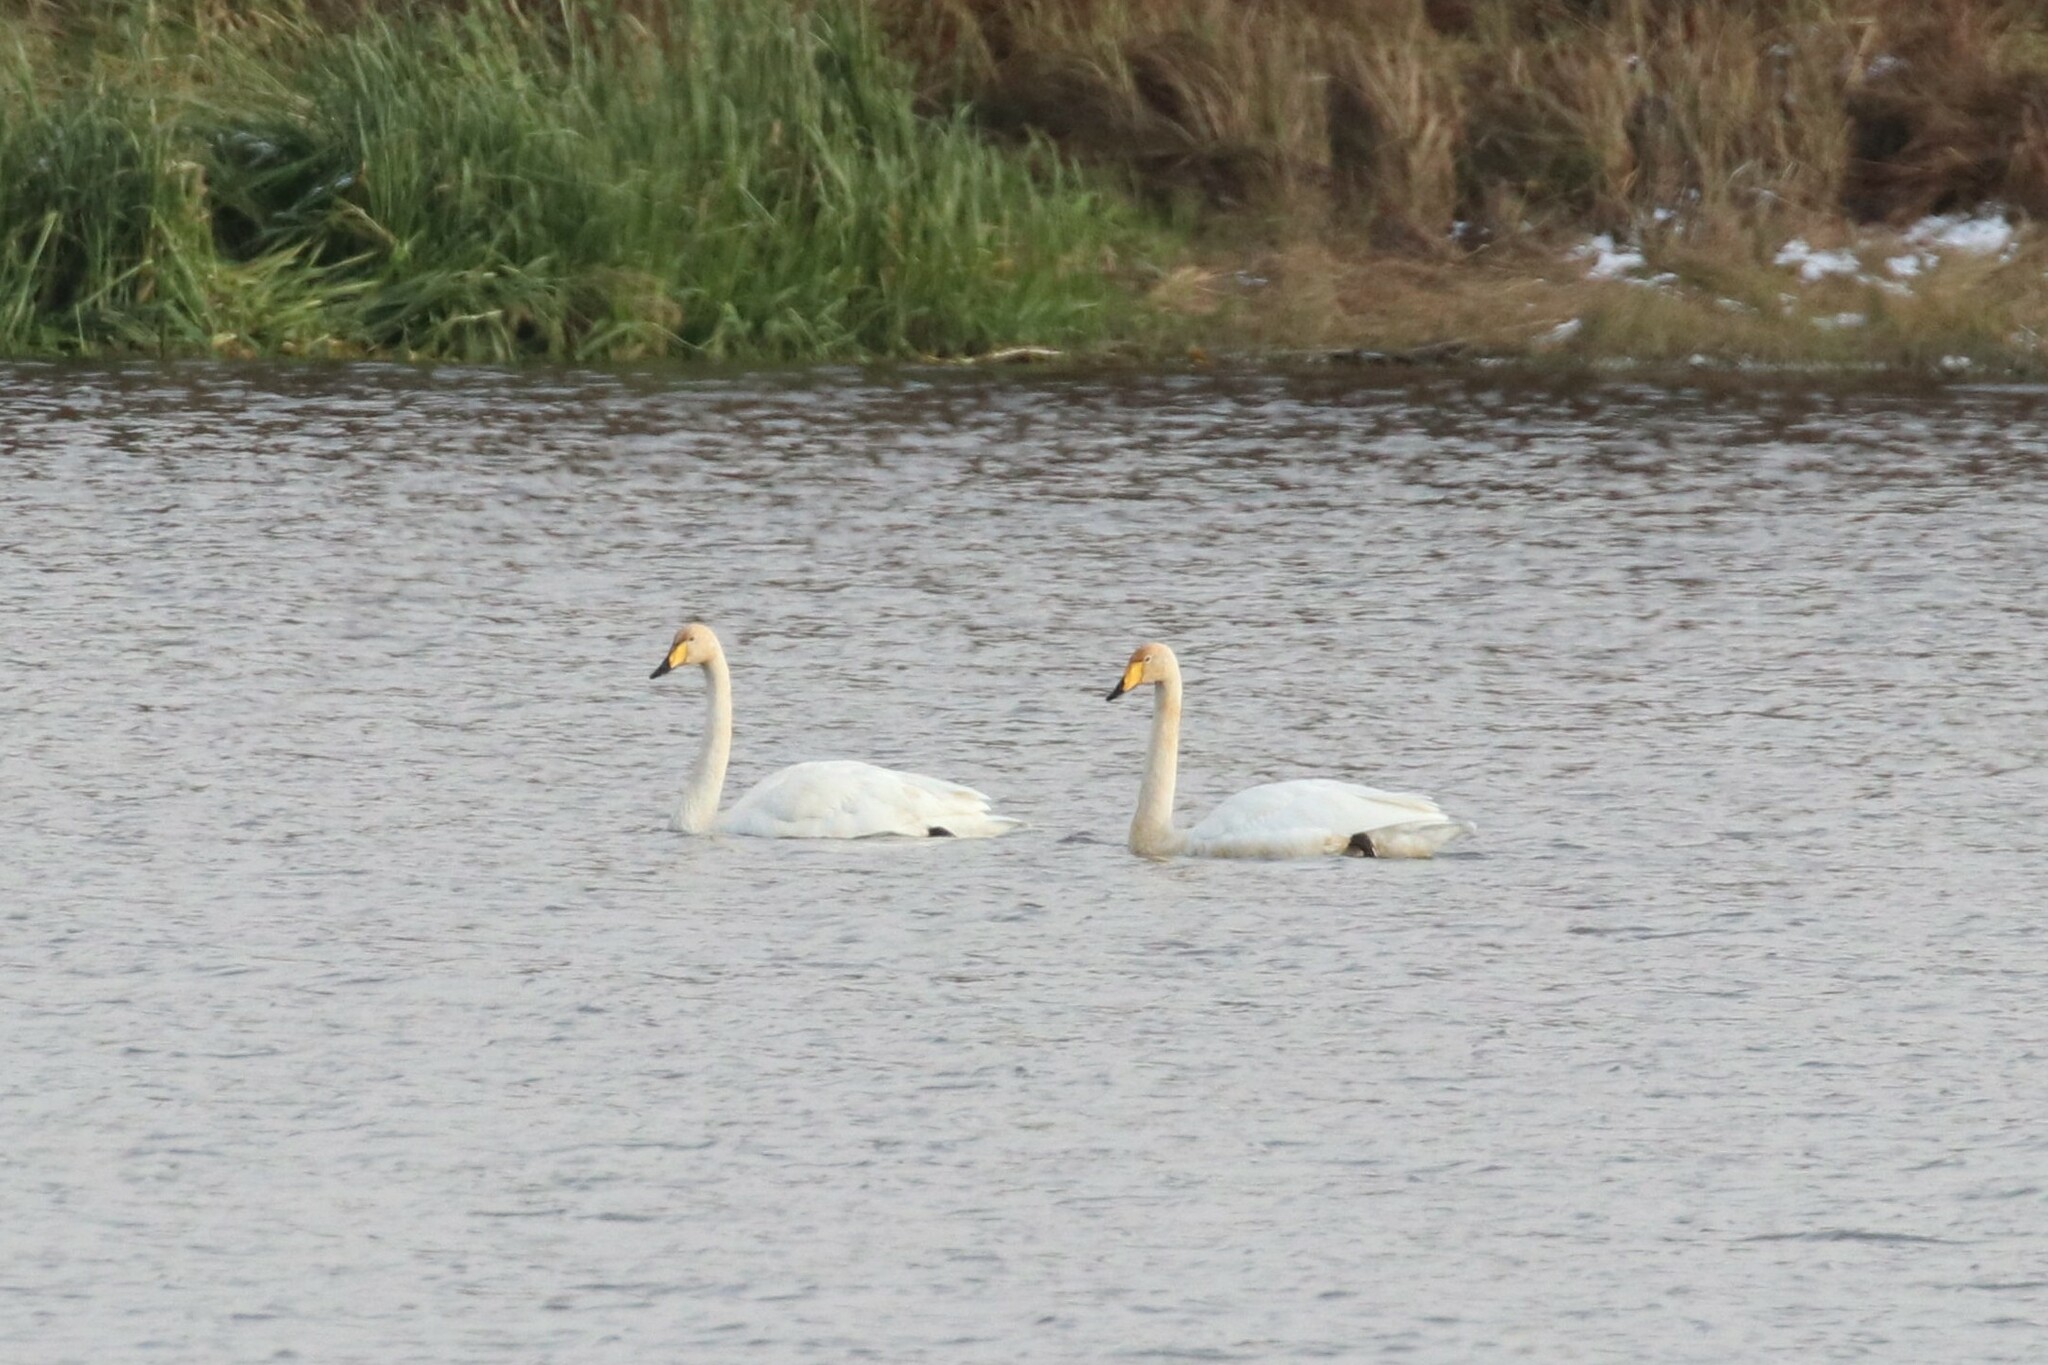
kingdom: Animalia
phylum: Chordata
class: Aves
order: Anseriformes
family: Anatidae
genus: Cygnus
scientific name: Cygnus cygnus
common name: Whooper swan
